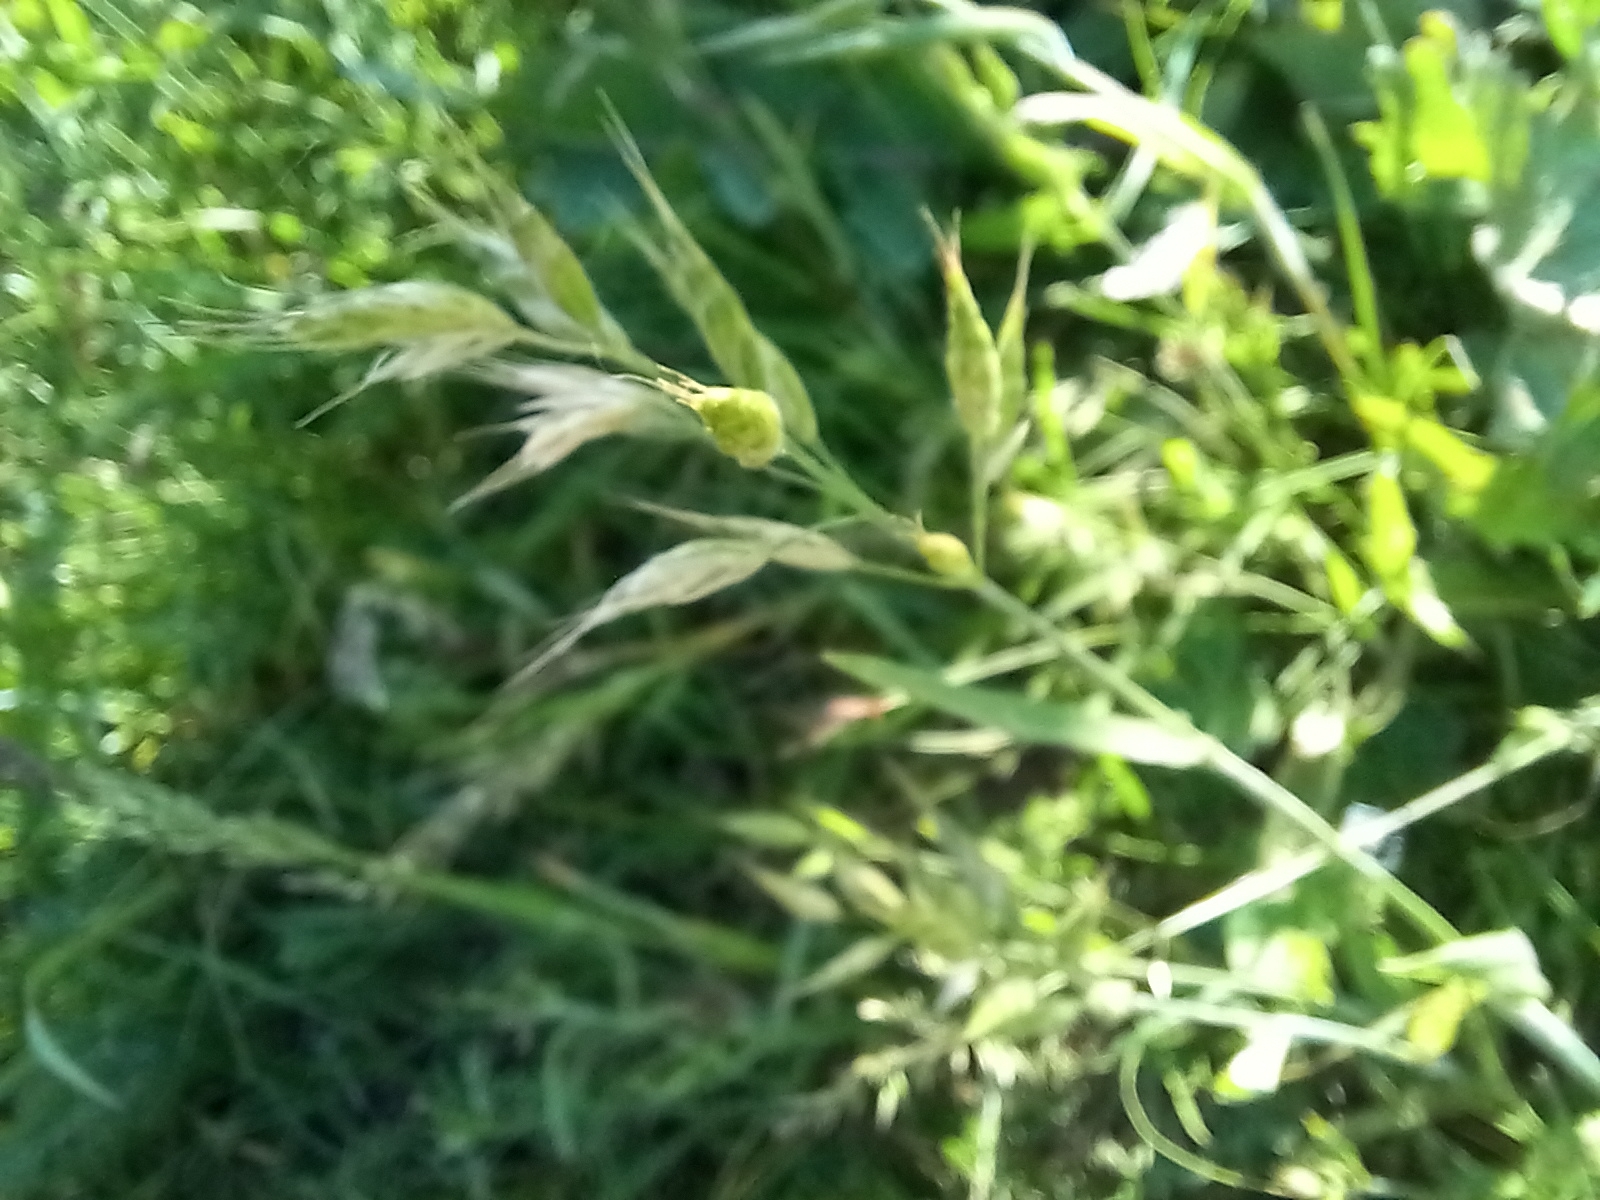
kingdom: Plantae
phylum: Tracheophyta
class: Liliopsida
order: Poales
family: Poaceae
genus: Bromus
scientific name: Bromus hordeaceus
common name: Soft brome
